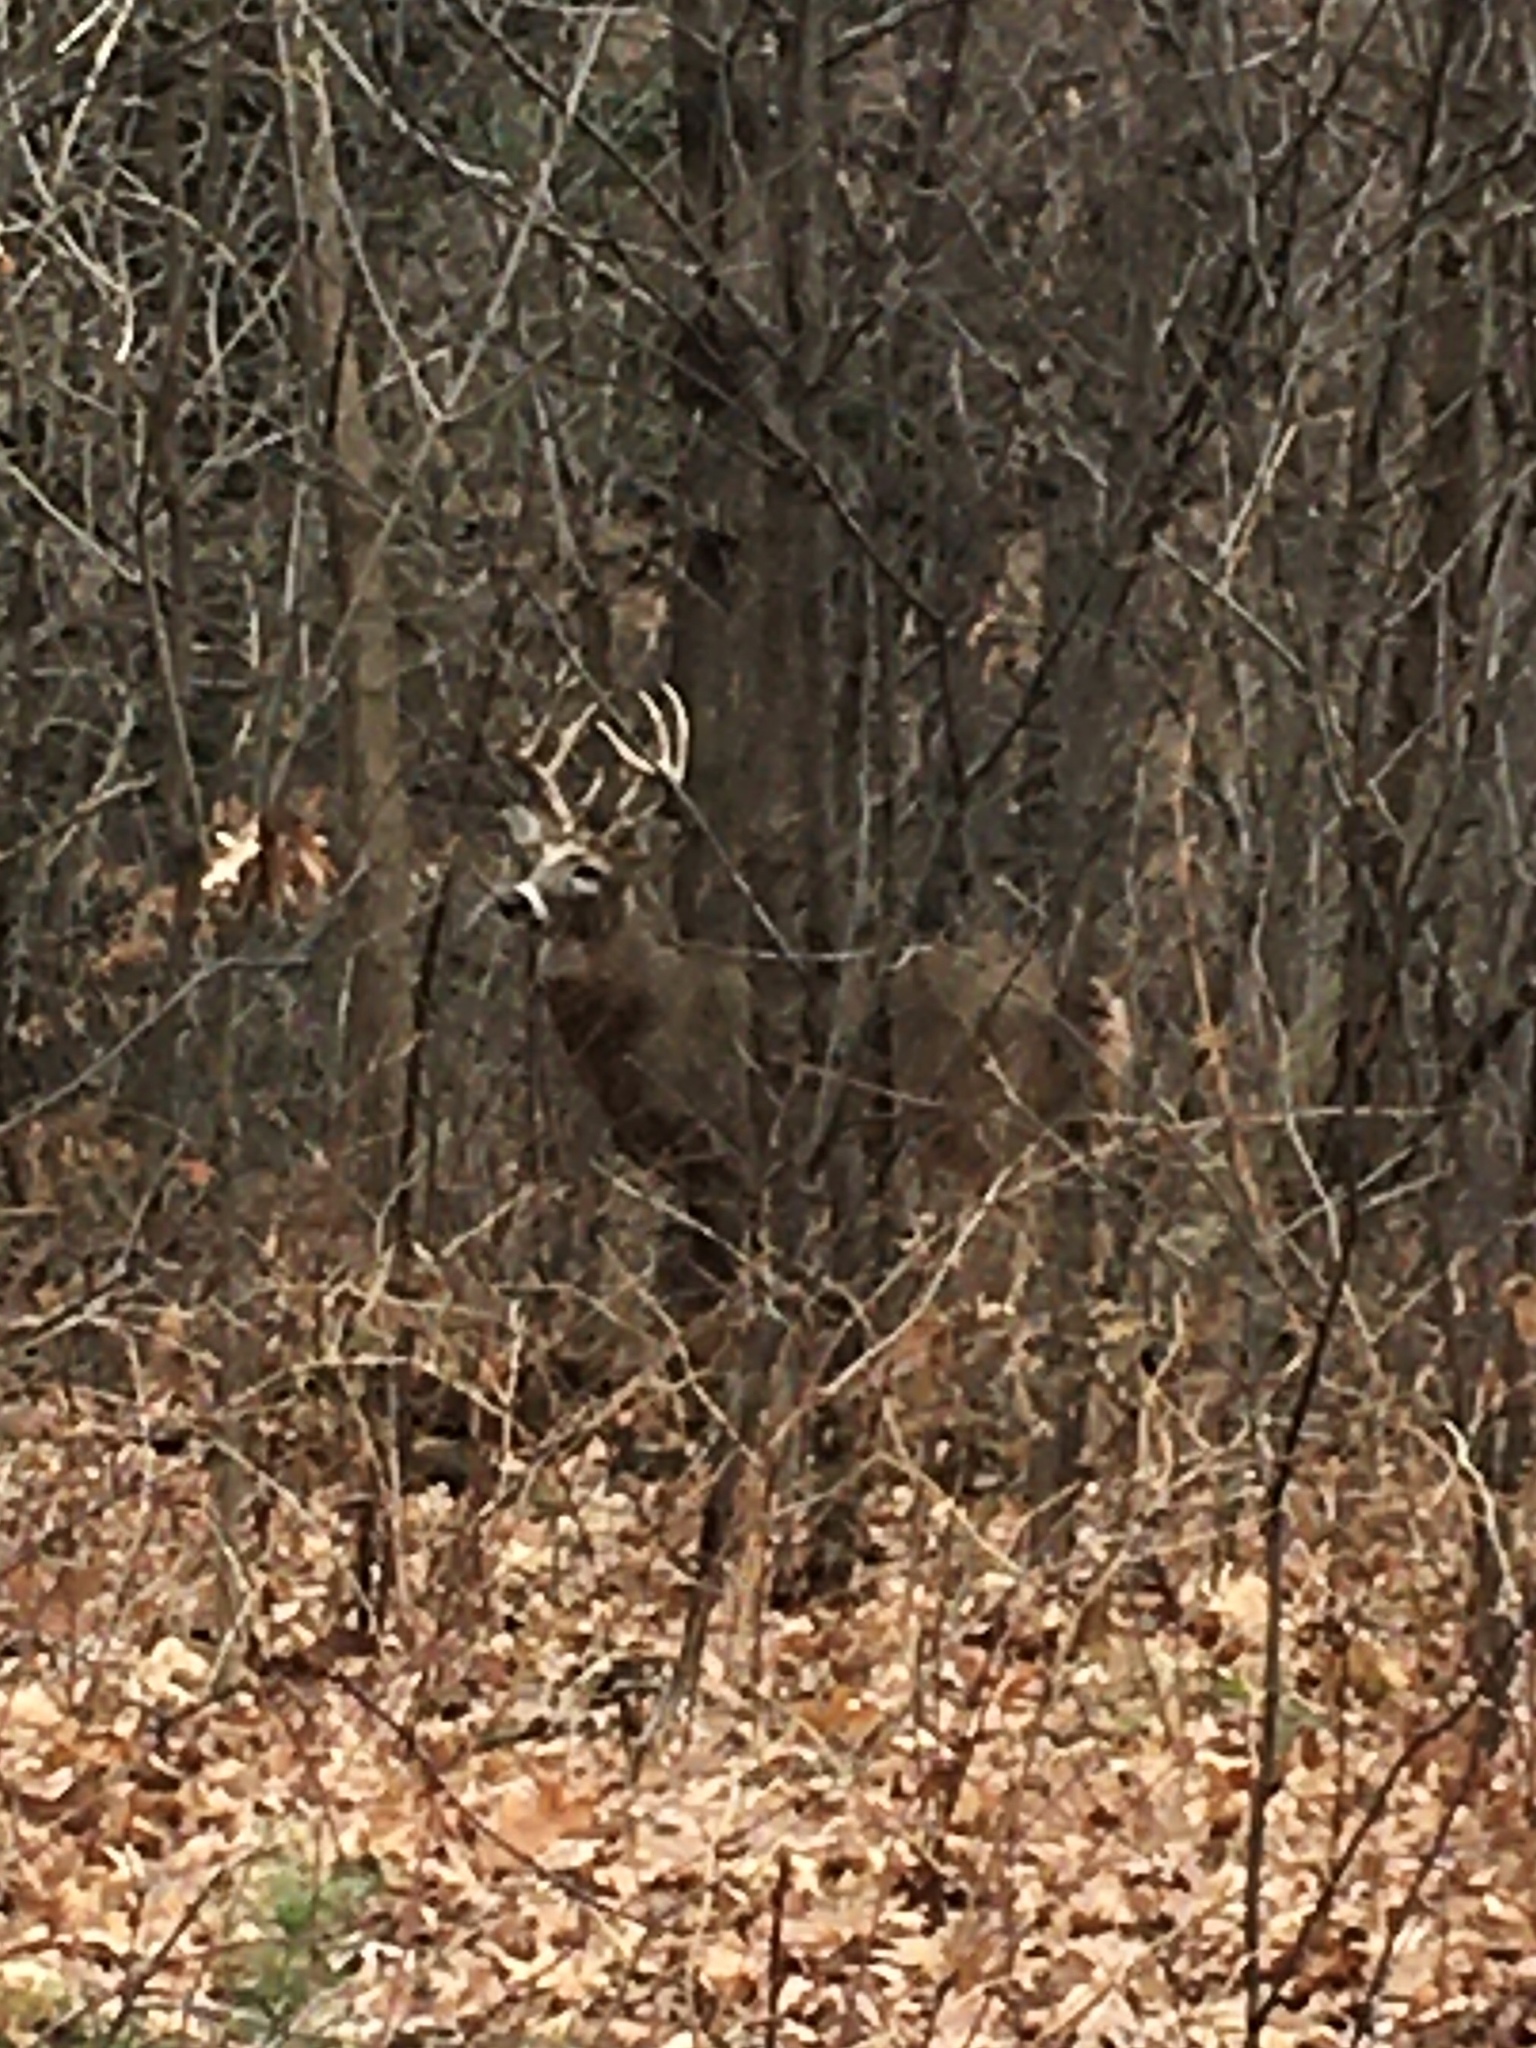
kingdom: Animalia
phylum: Chordata
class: Mammalia
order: Artiodactyla
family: Cervidae
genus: Odocoileus
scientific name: Odocoileus virginianus
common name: White-tailed deer
